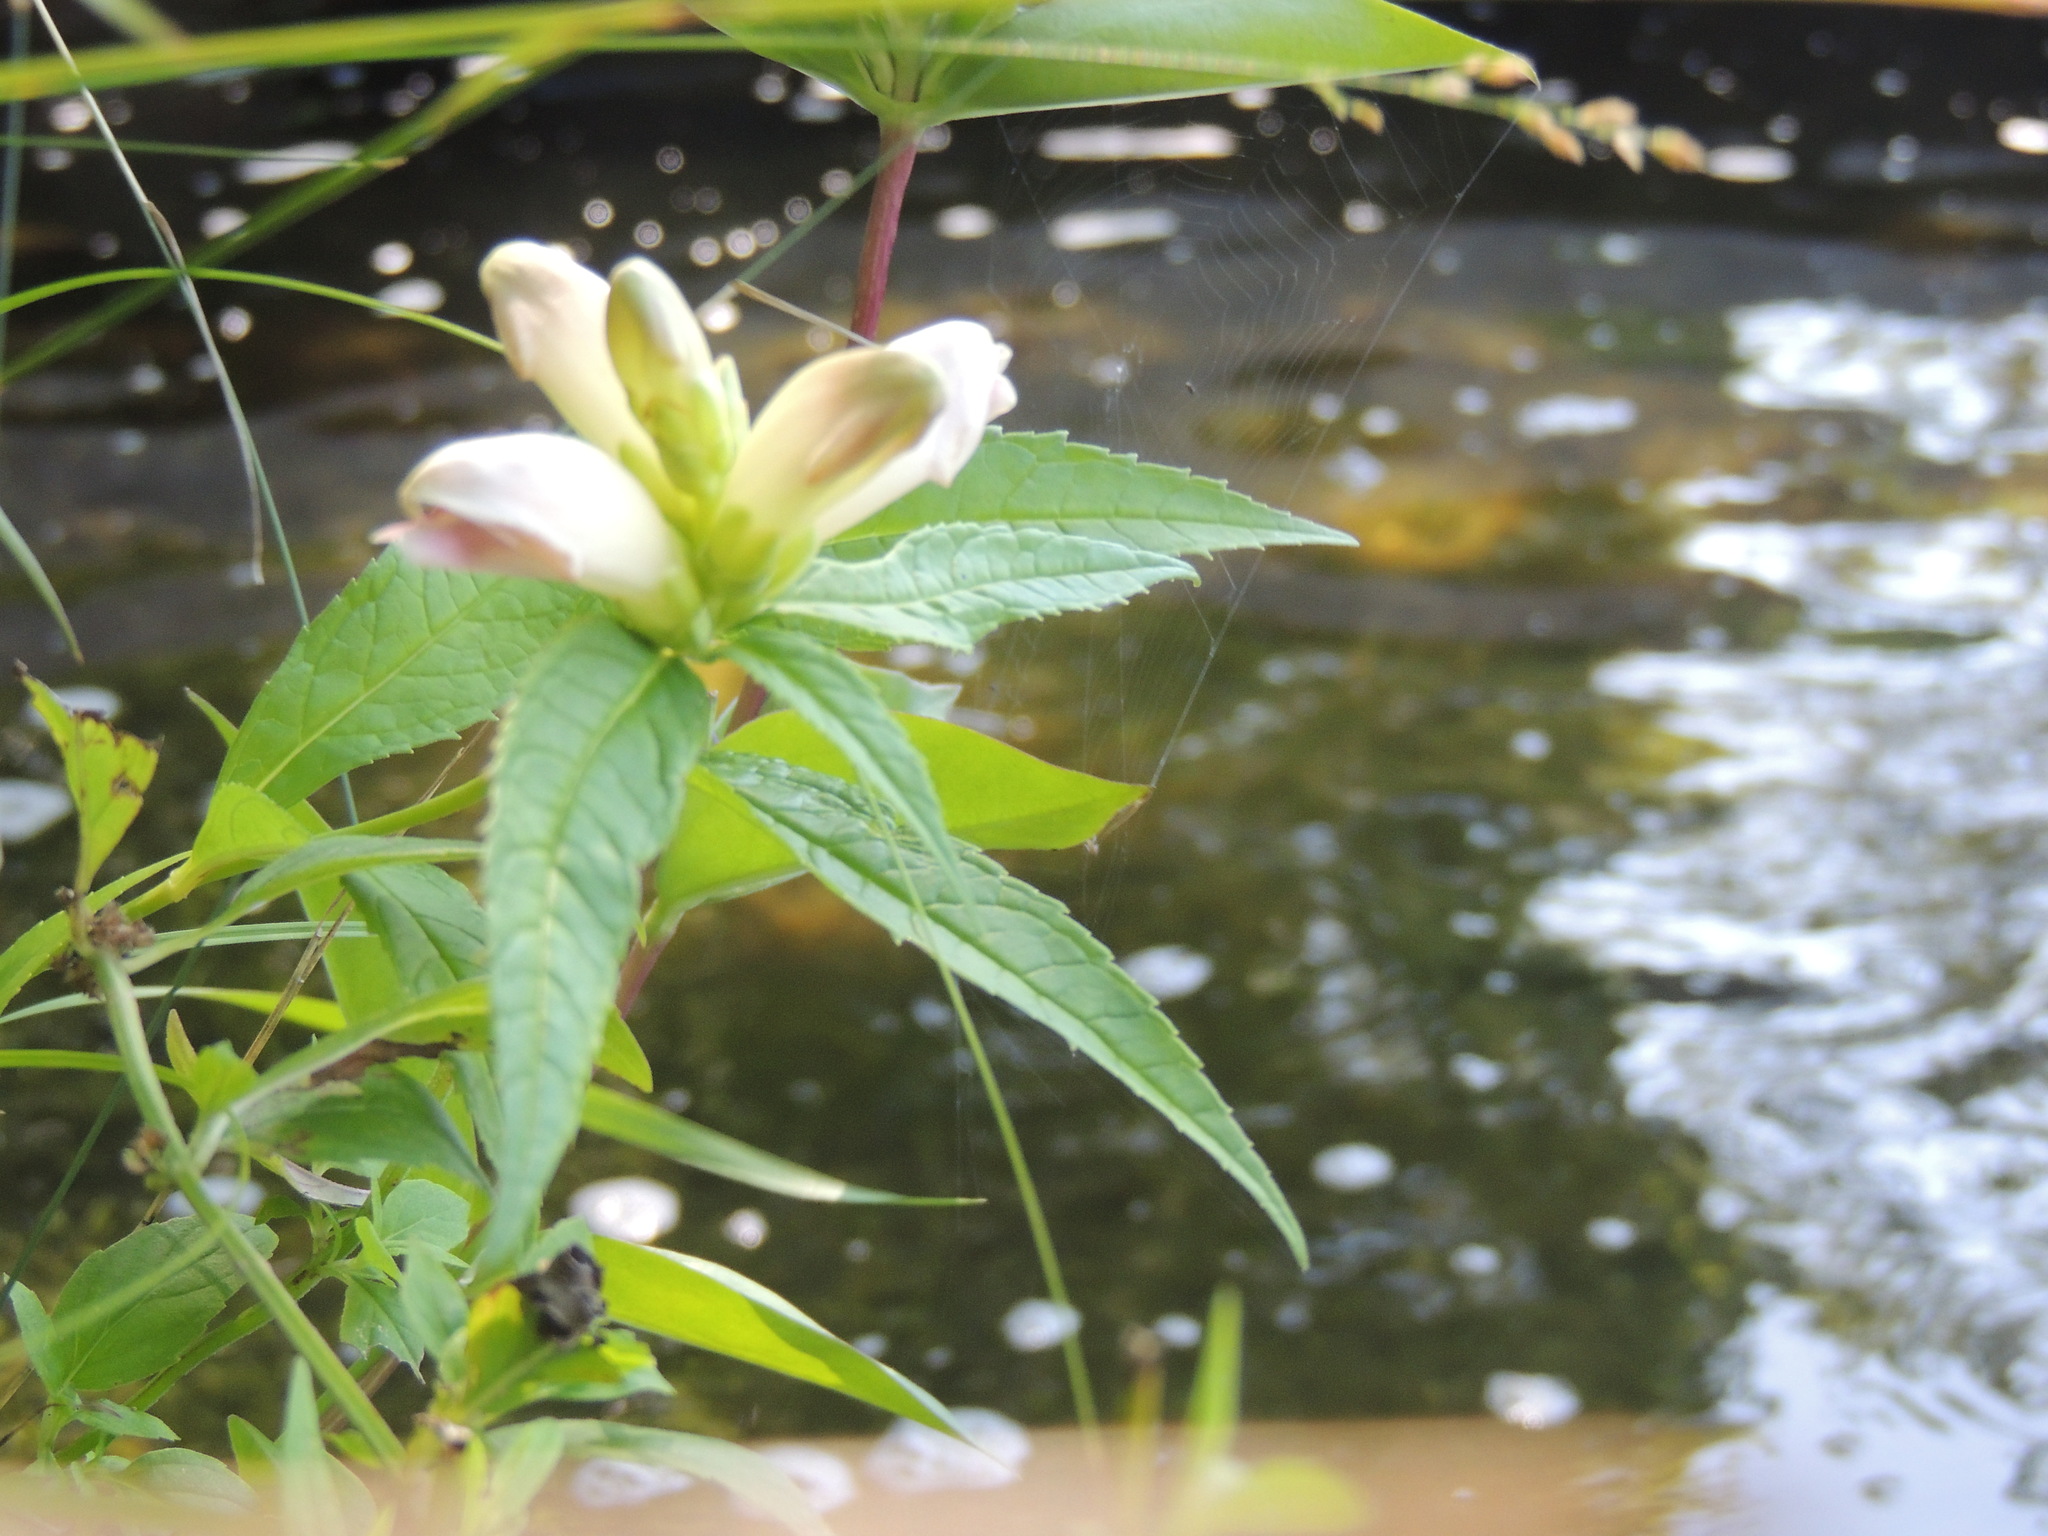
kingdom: Plantae
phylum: Tracheophyta
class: Magnoliopsida
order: Lamiales
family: Plantaginaceae
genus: Chelone
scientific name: Chelone glabra
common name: Snakehead
